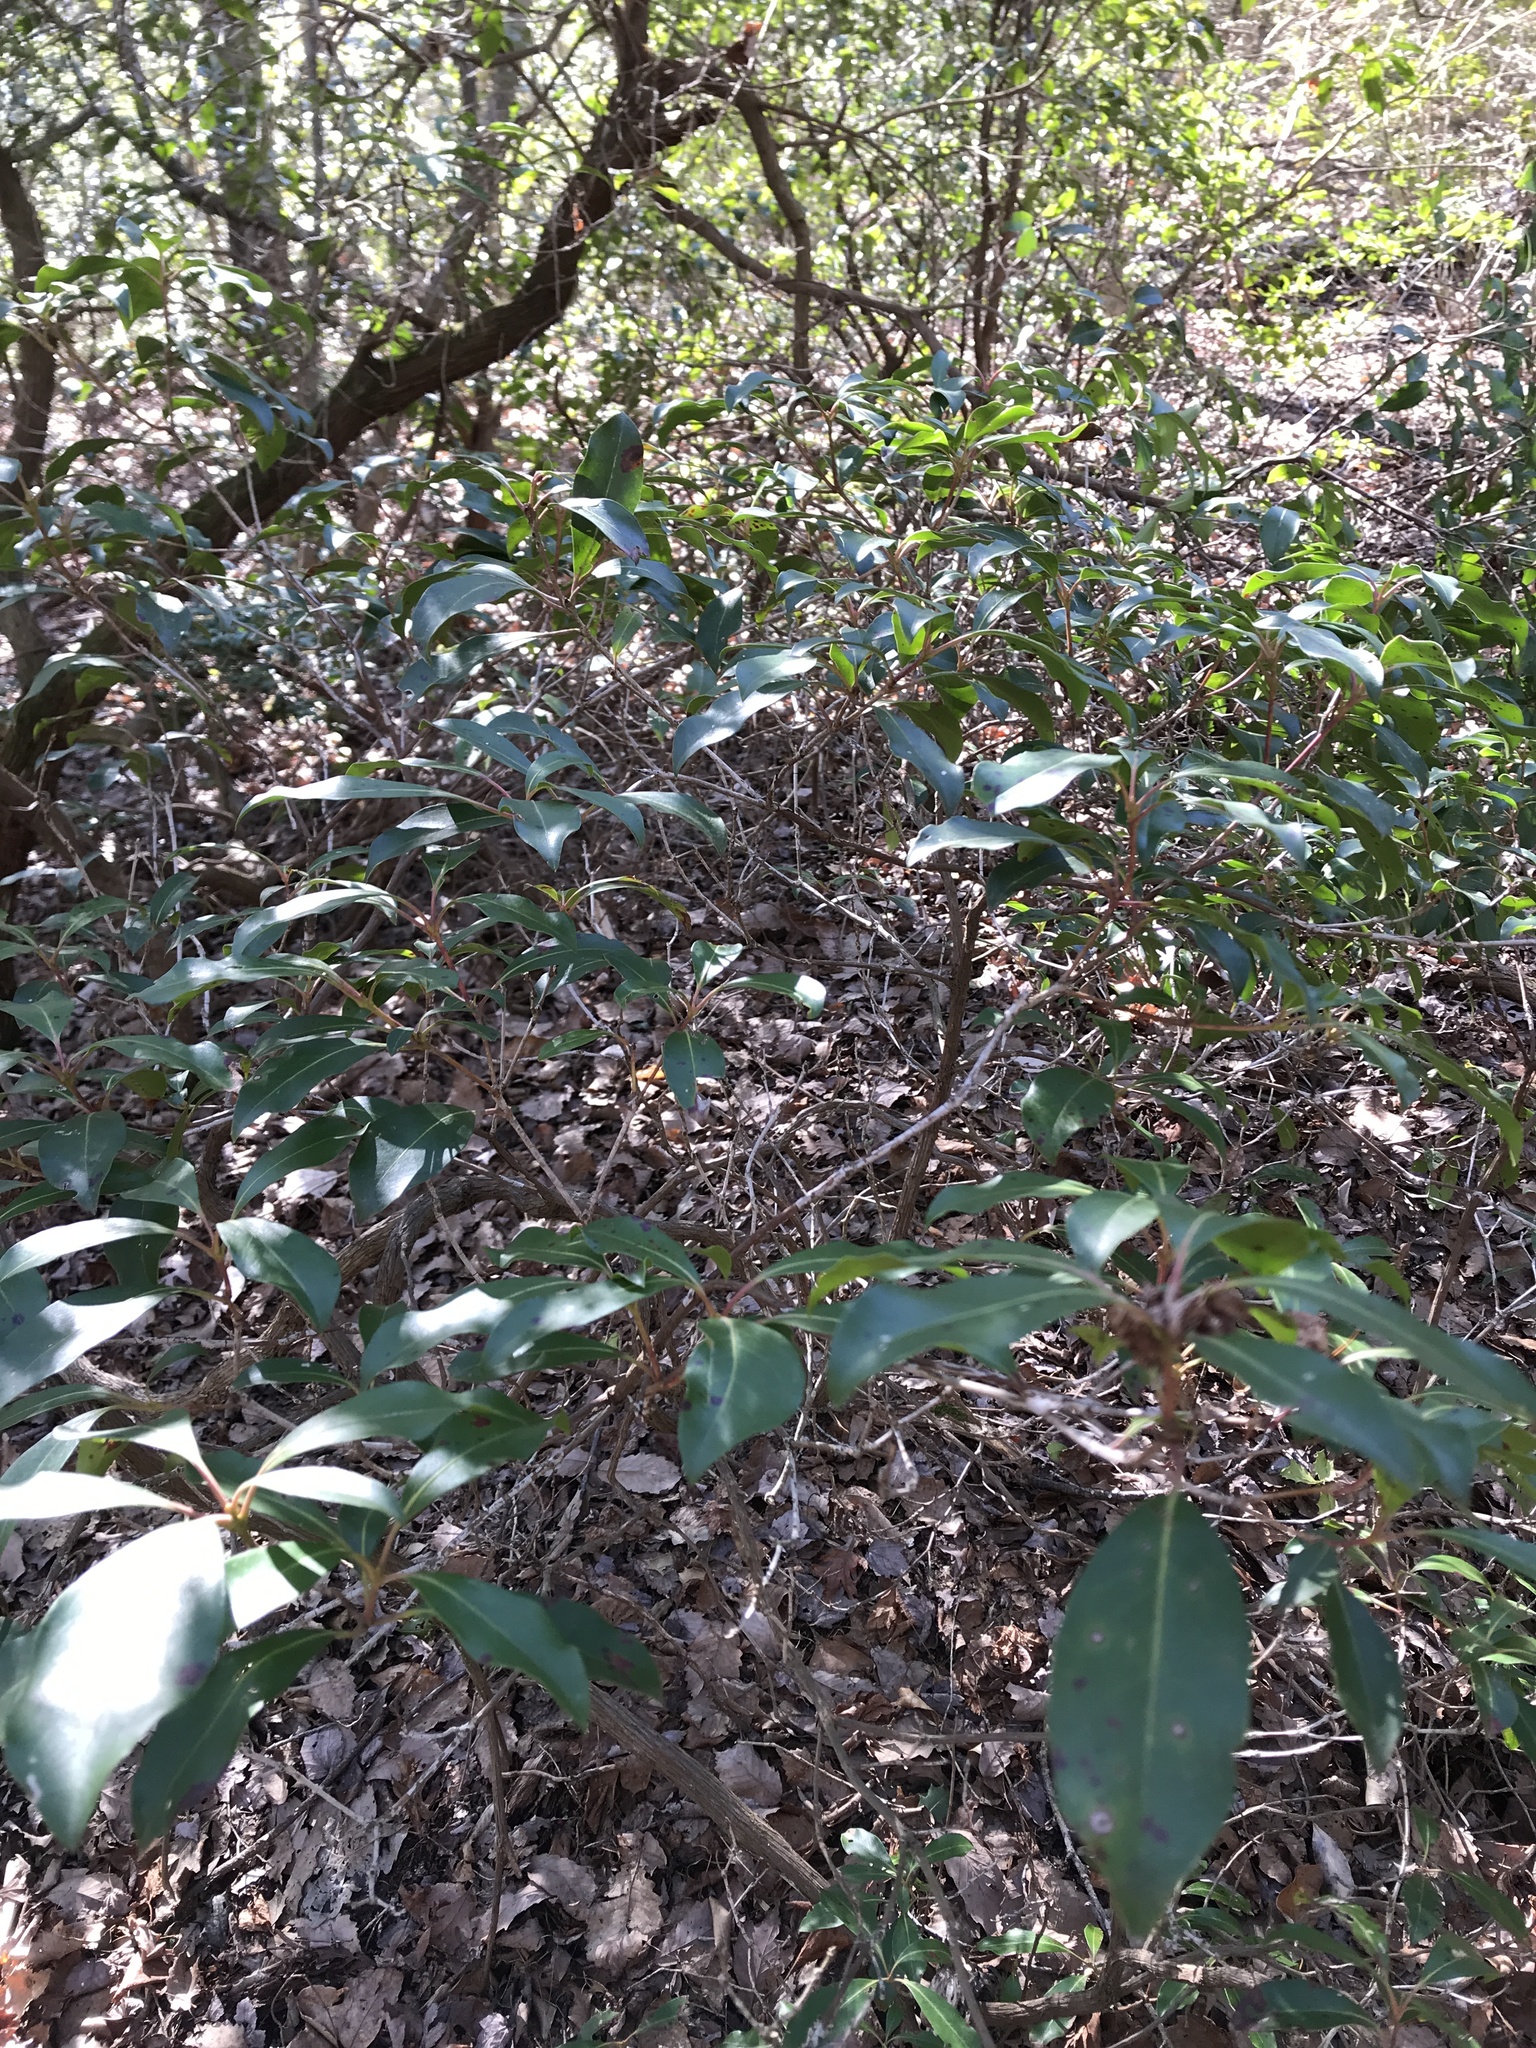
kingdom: Plantae
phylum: Tracheophyta
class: Magnoliopsida
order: Ericales
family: Ericaceae
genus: Kalmia
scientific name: Kalmia latifolia
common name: Mountain-laurel
